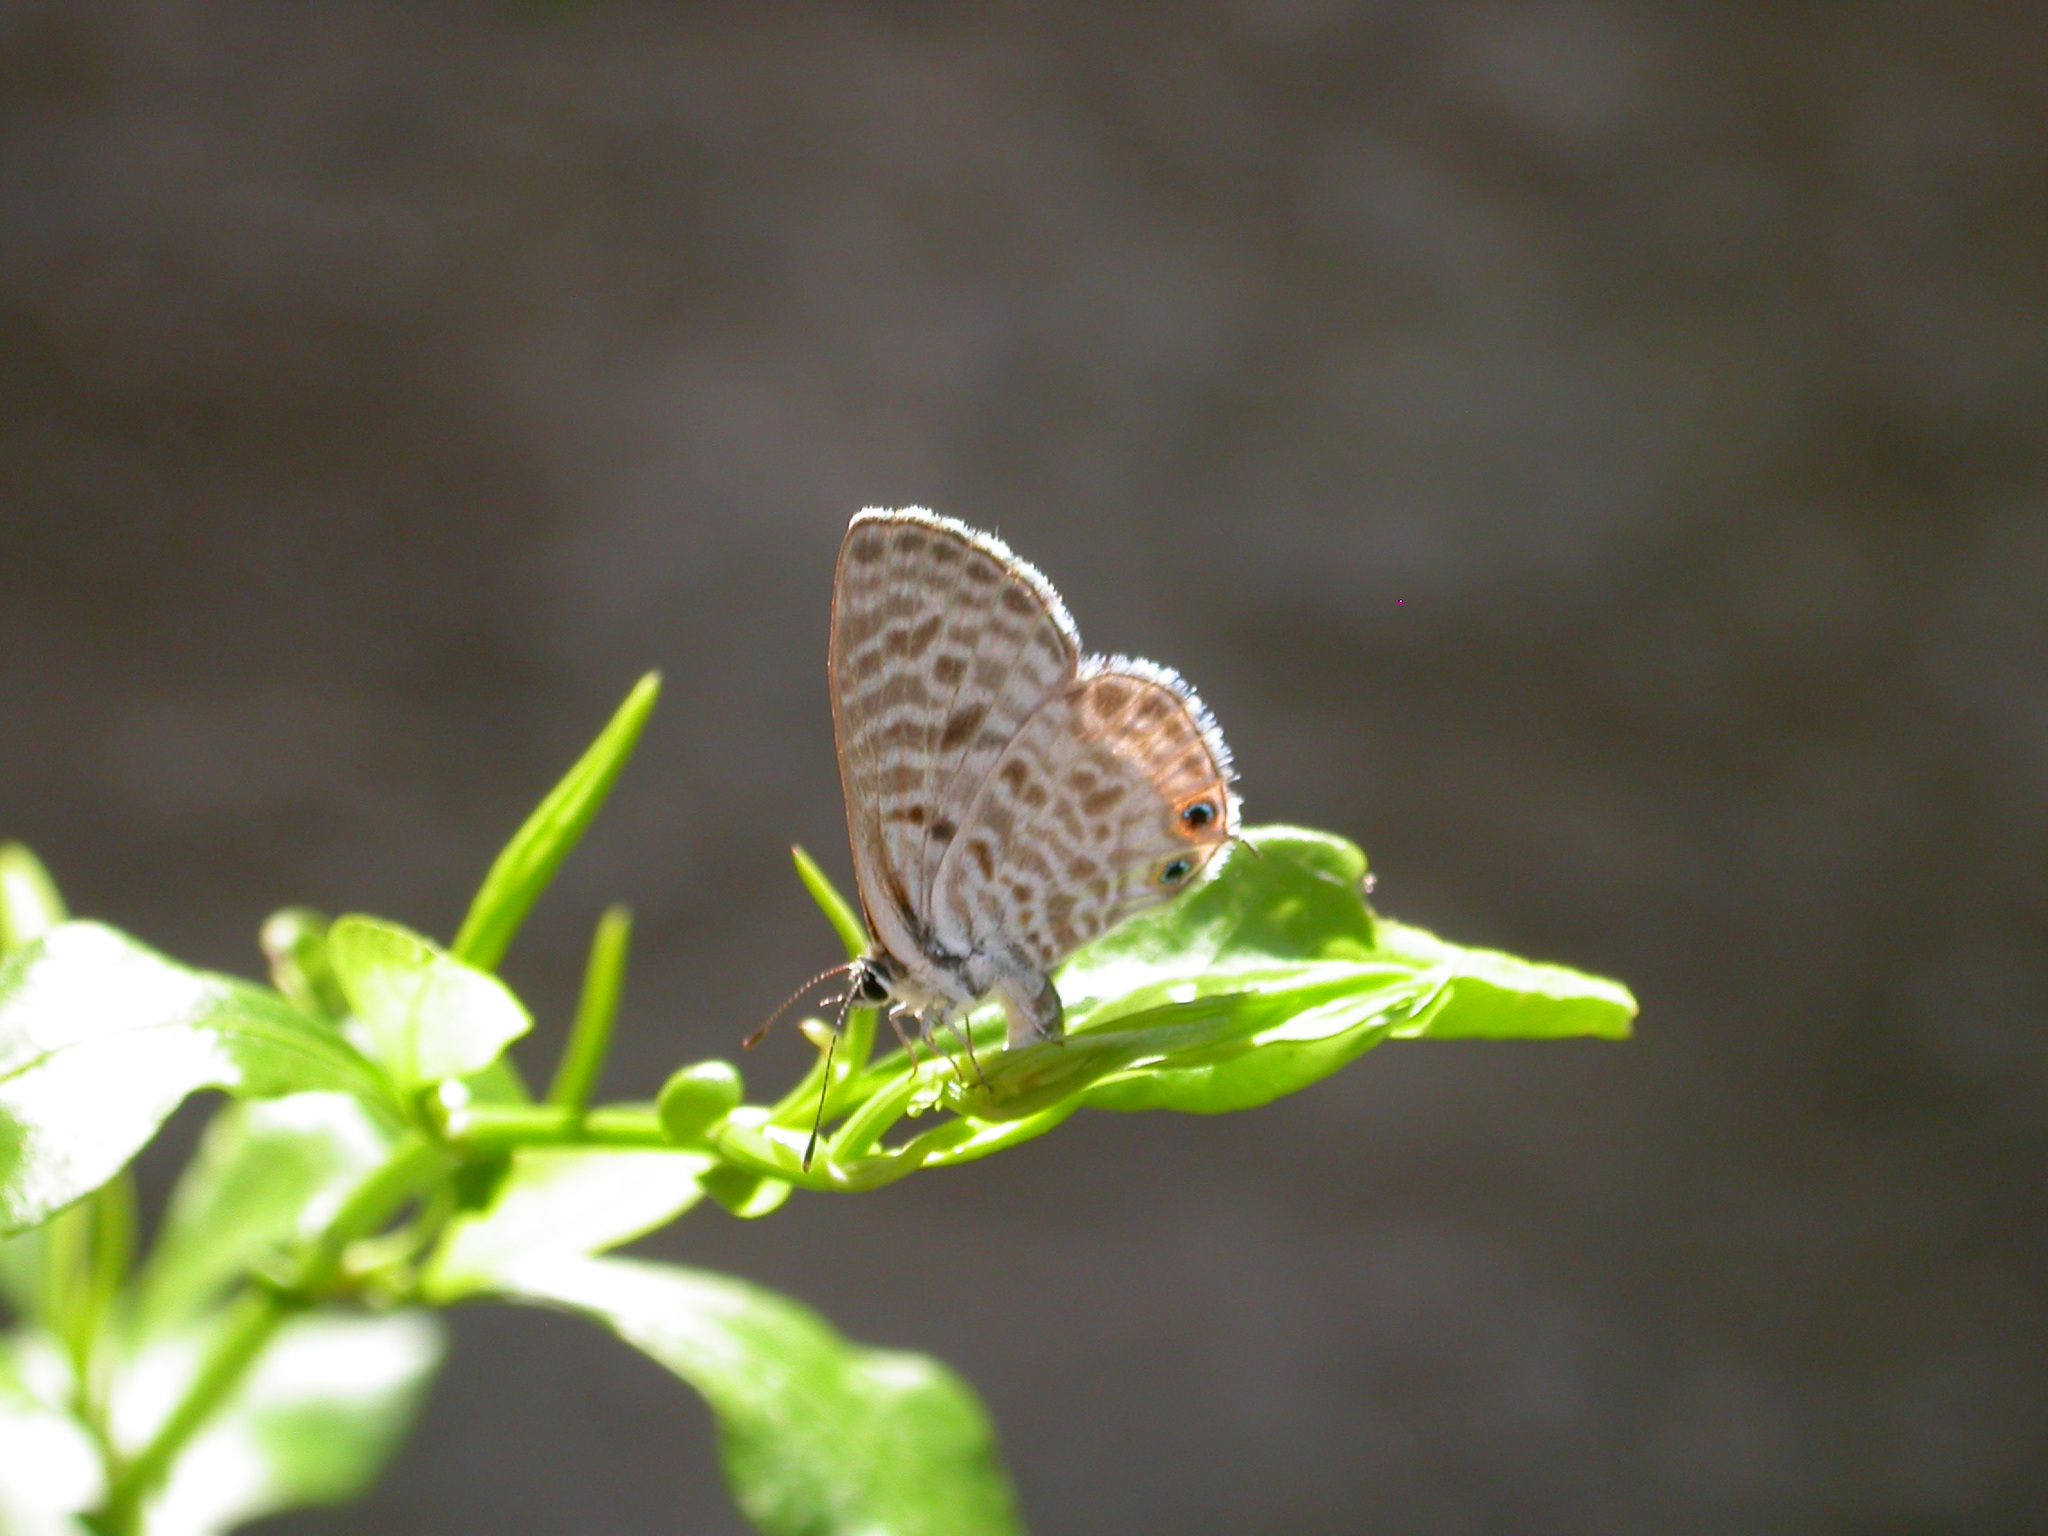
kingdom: Animalia
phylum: Arthropoda
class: Insecta
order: Lepidoptera
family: Lycaenidae
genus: Leptotes
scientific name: Leptotes pirithous
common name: Lang's short-tailed blue
